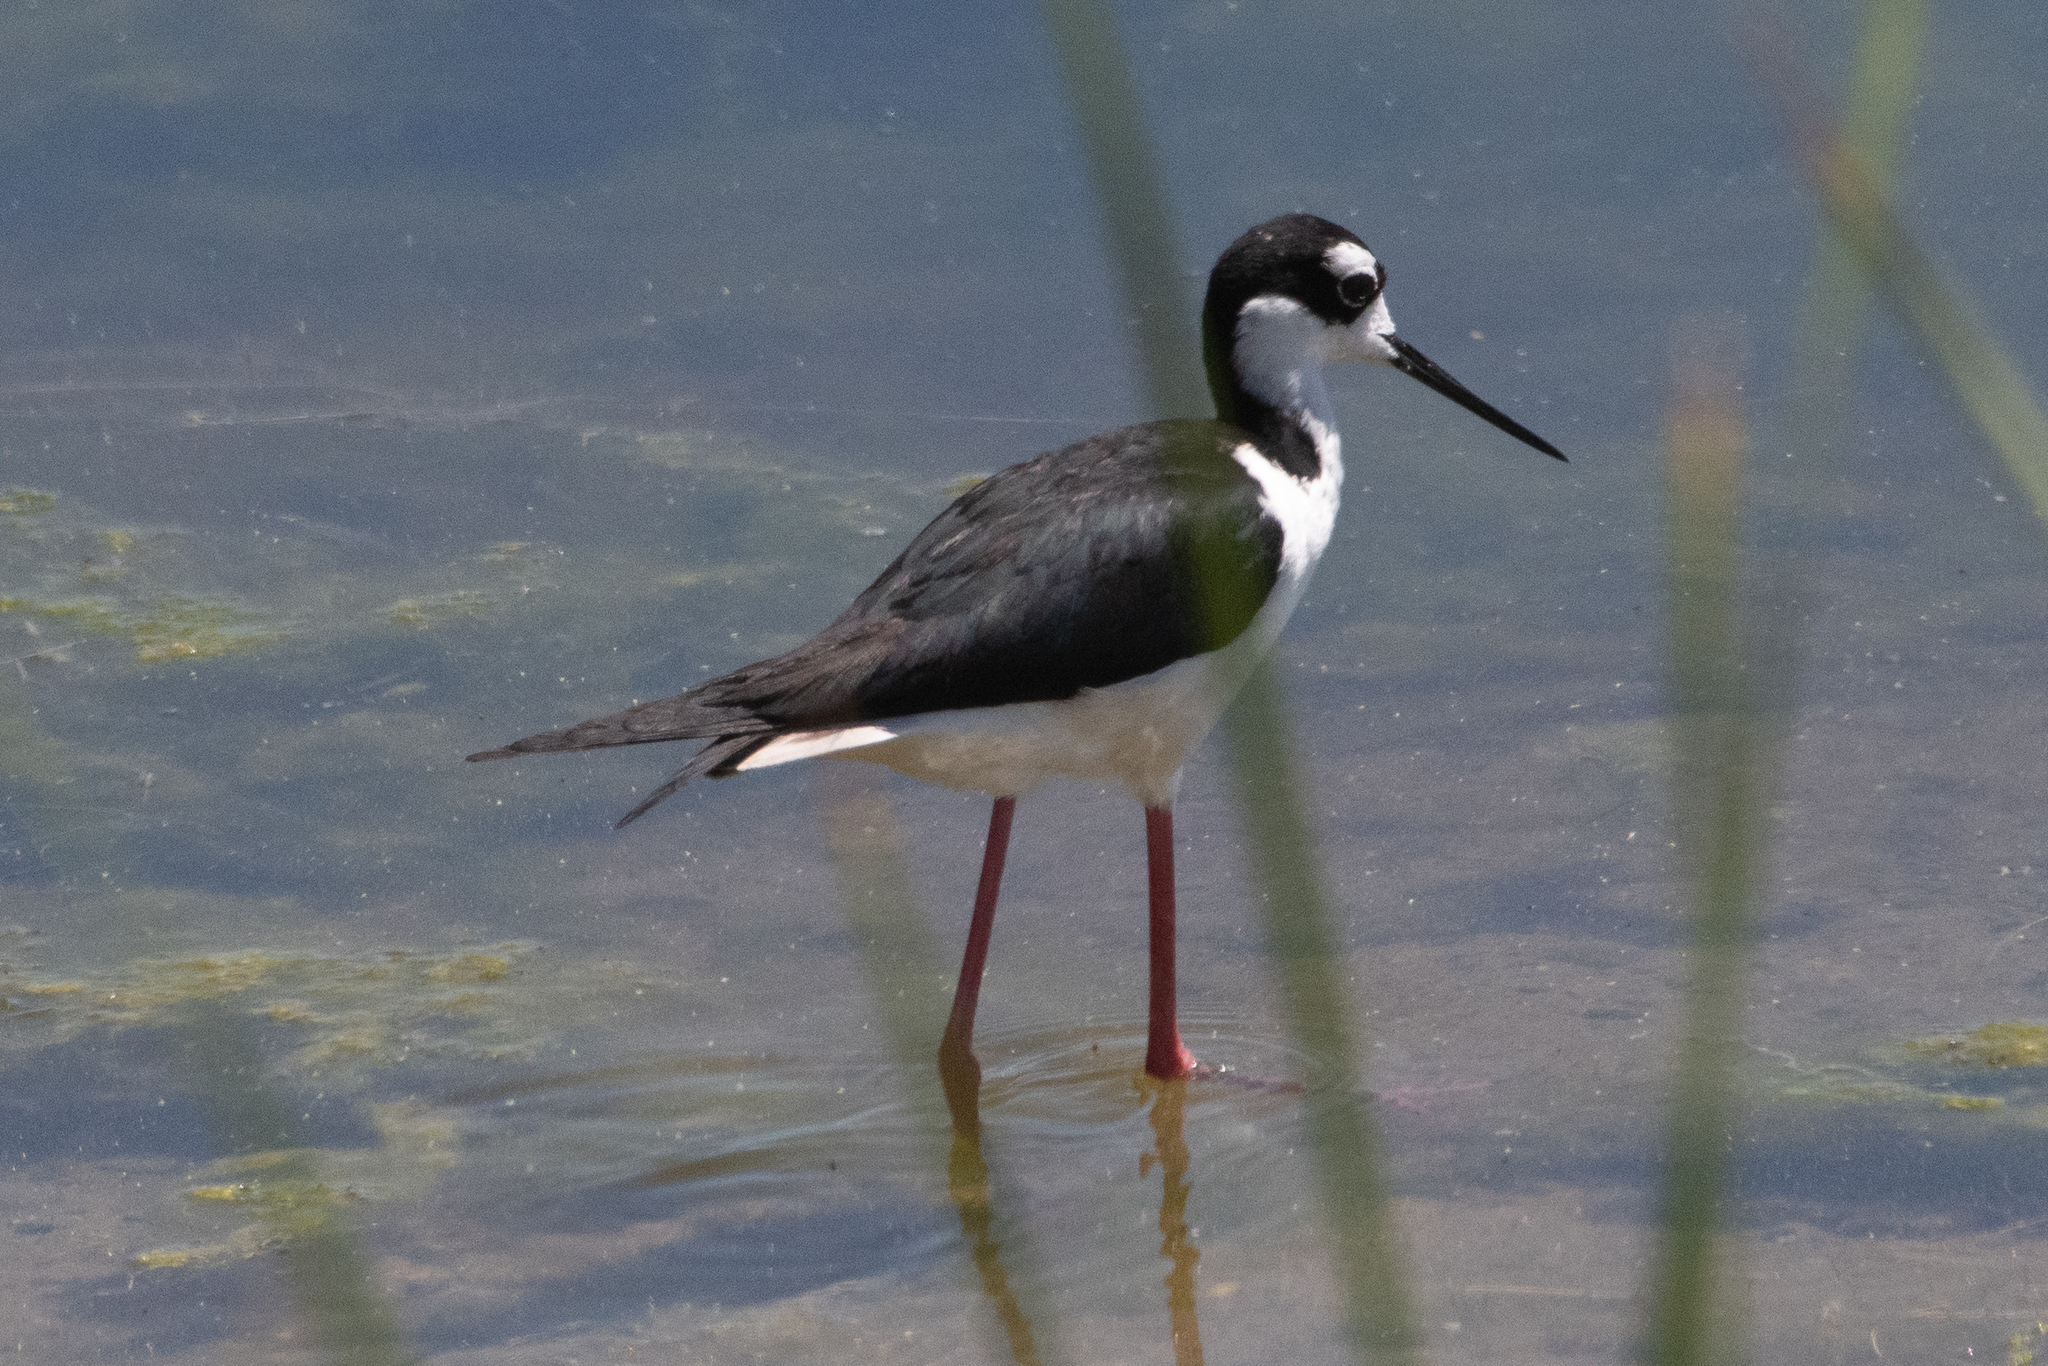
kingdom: Animalia
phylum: Chordata
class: Aves
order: Charadriiformes
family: Recurvirostridae
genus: Himantopus
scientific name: Himantopus mexicanus
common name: Black-necked stilt
